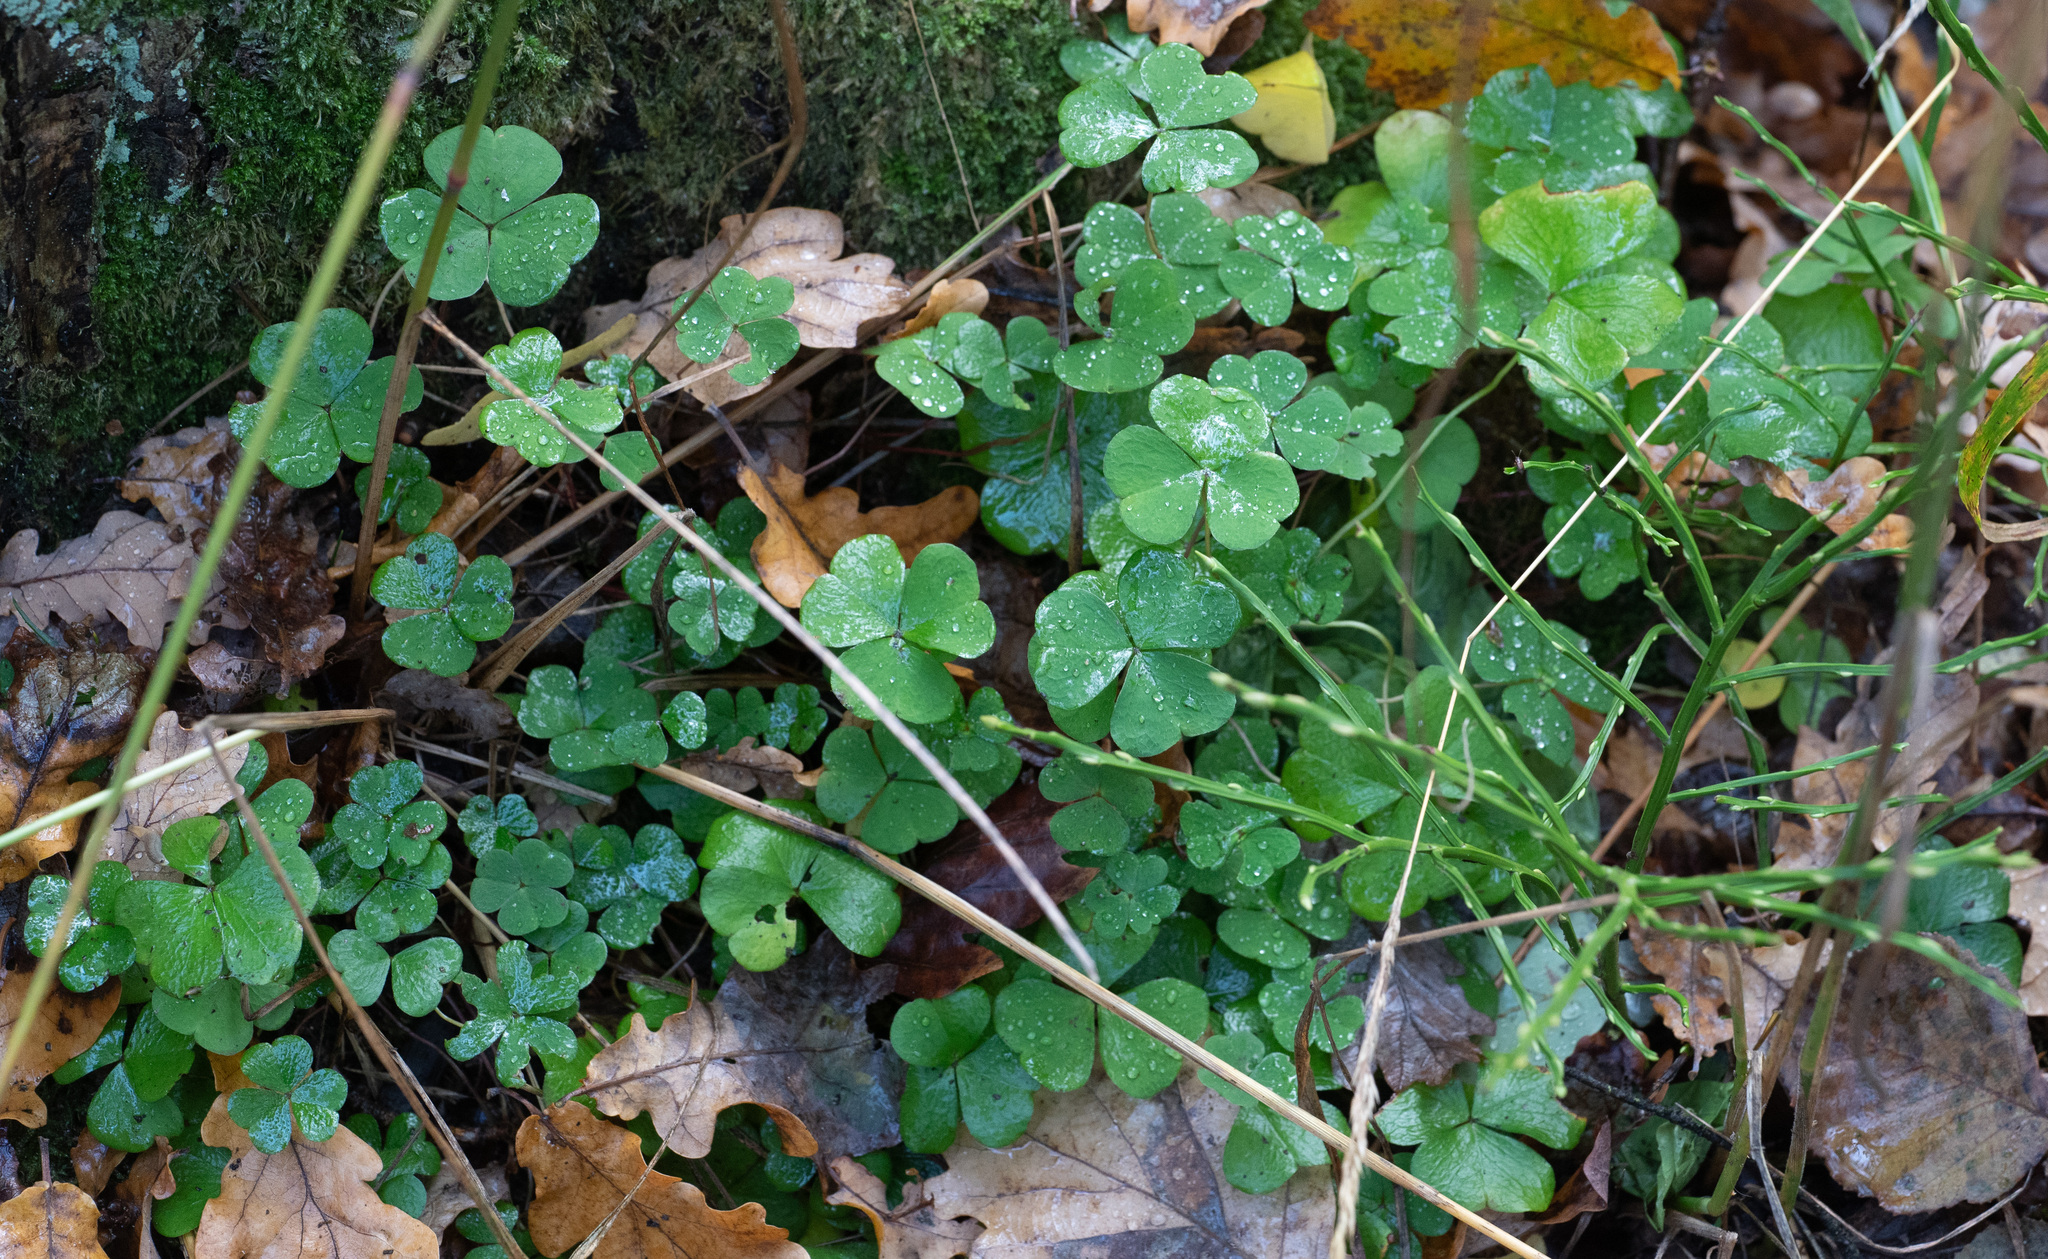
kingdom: Plantae
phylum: Tracheophyta
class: Magnoliopsida
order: Oxalidales
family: Oxalidaceae
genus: Oxalis
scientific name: Oxalis acetosella
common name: Wood-sorrel
